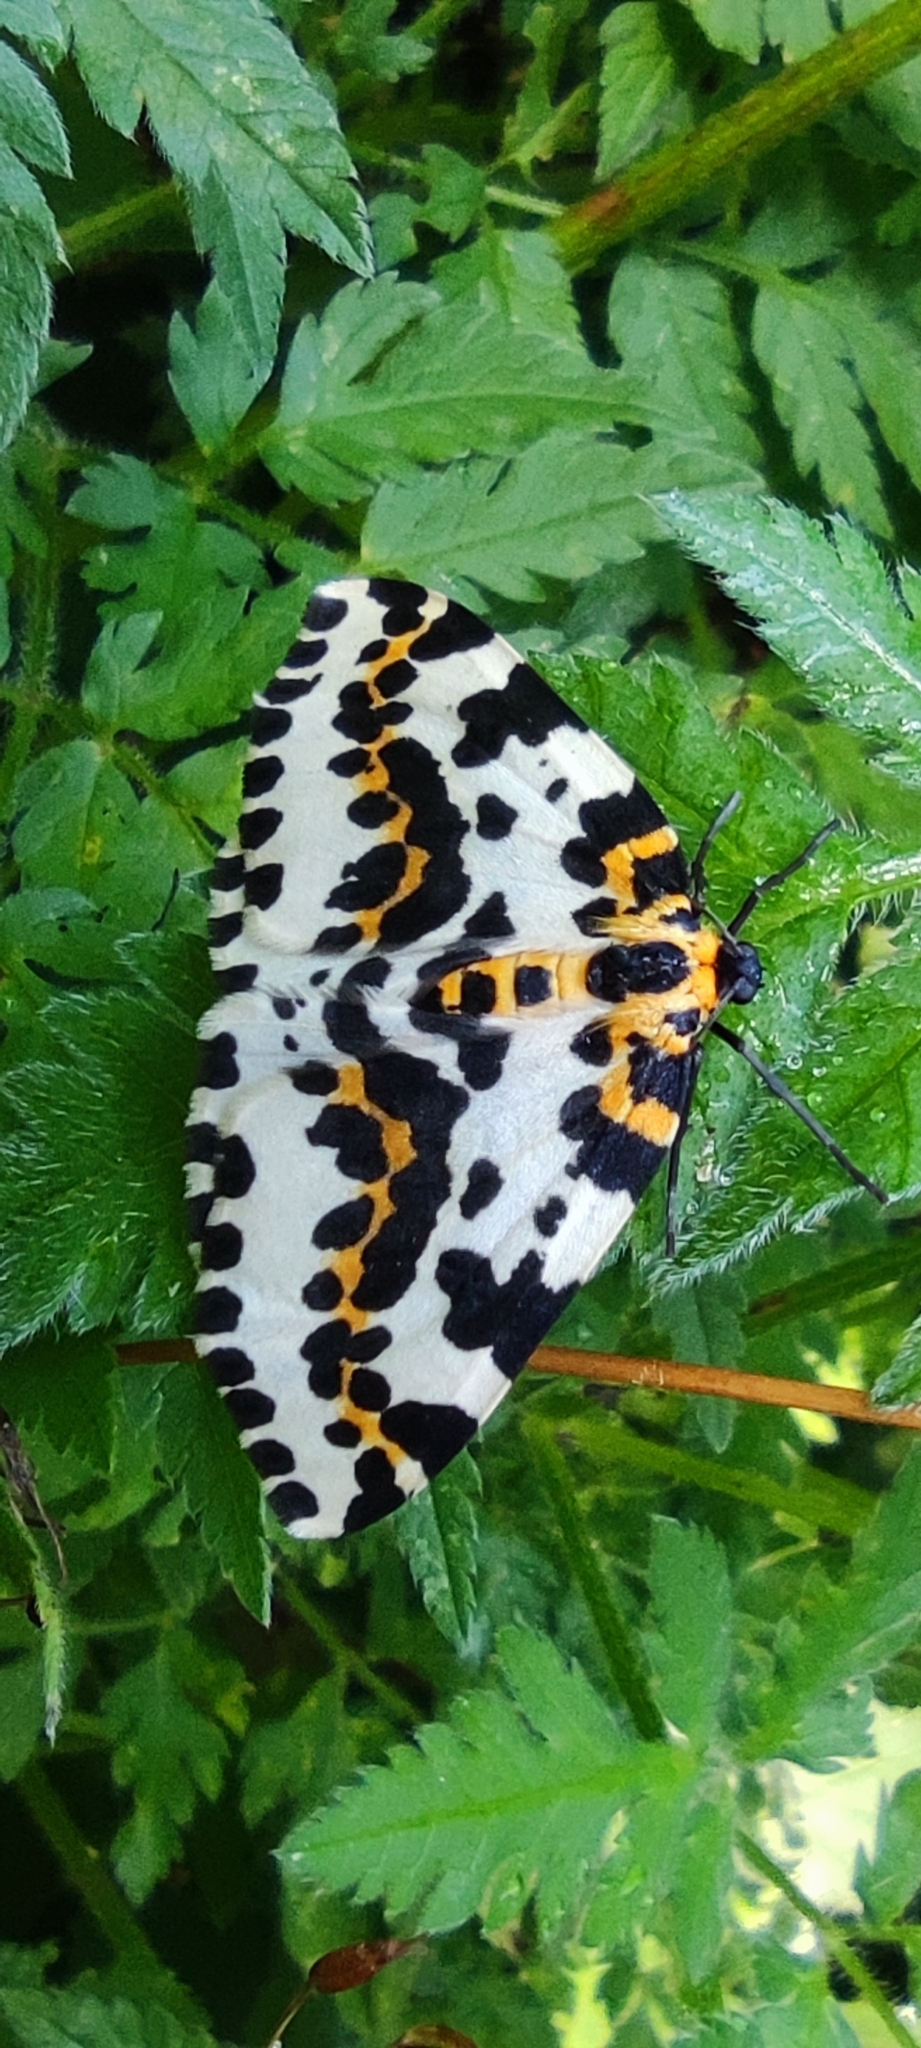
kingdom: Animalia
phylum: Arthropoda
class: Insecta
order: Lepidoptera
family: Geometridae
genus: Abraxas
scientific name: Abraxas grossulariata
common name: Magpie
